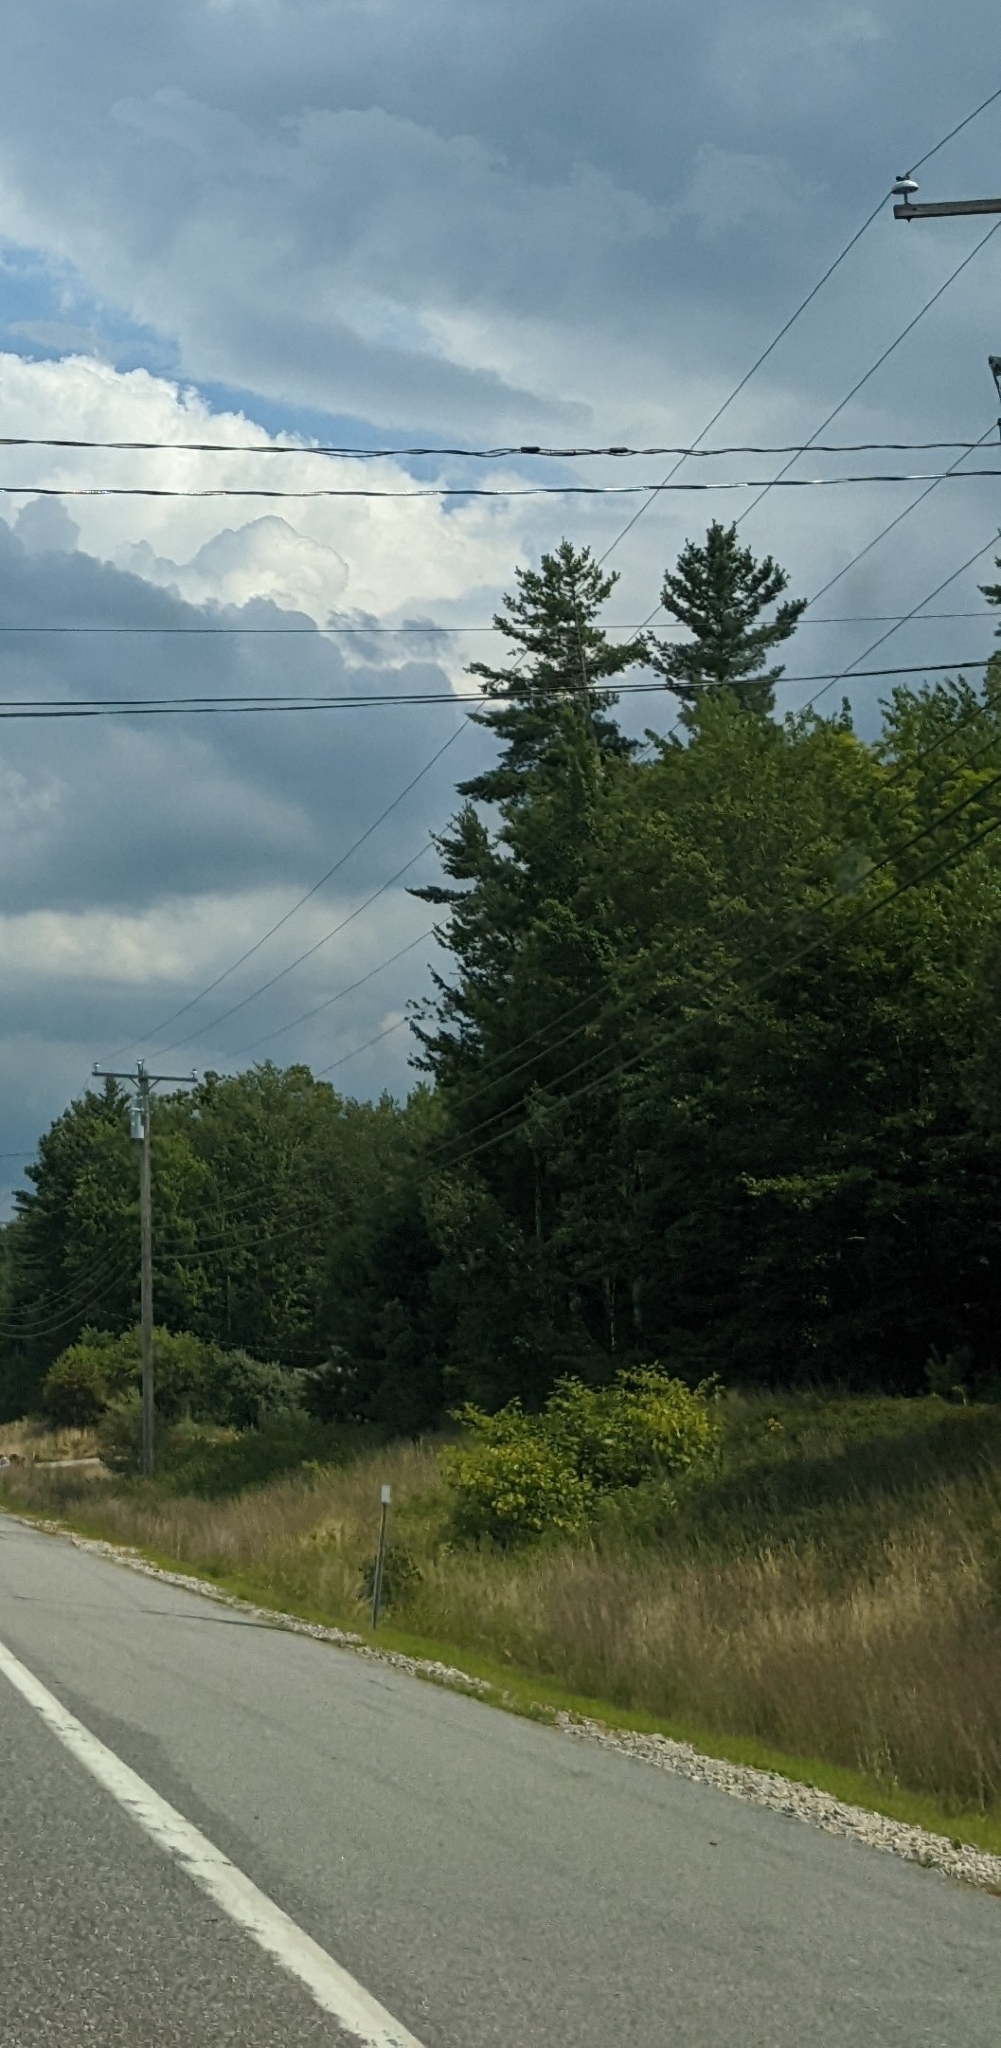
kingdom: Plantae
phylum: Tracheophyta
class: Pinopsida
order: Pinales
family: Pinaceae
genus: Pinus
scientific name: Pinus strobus
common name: Weymouth pine
